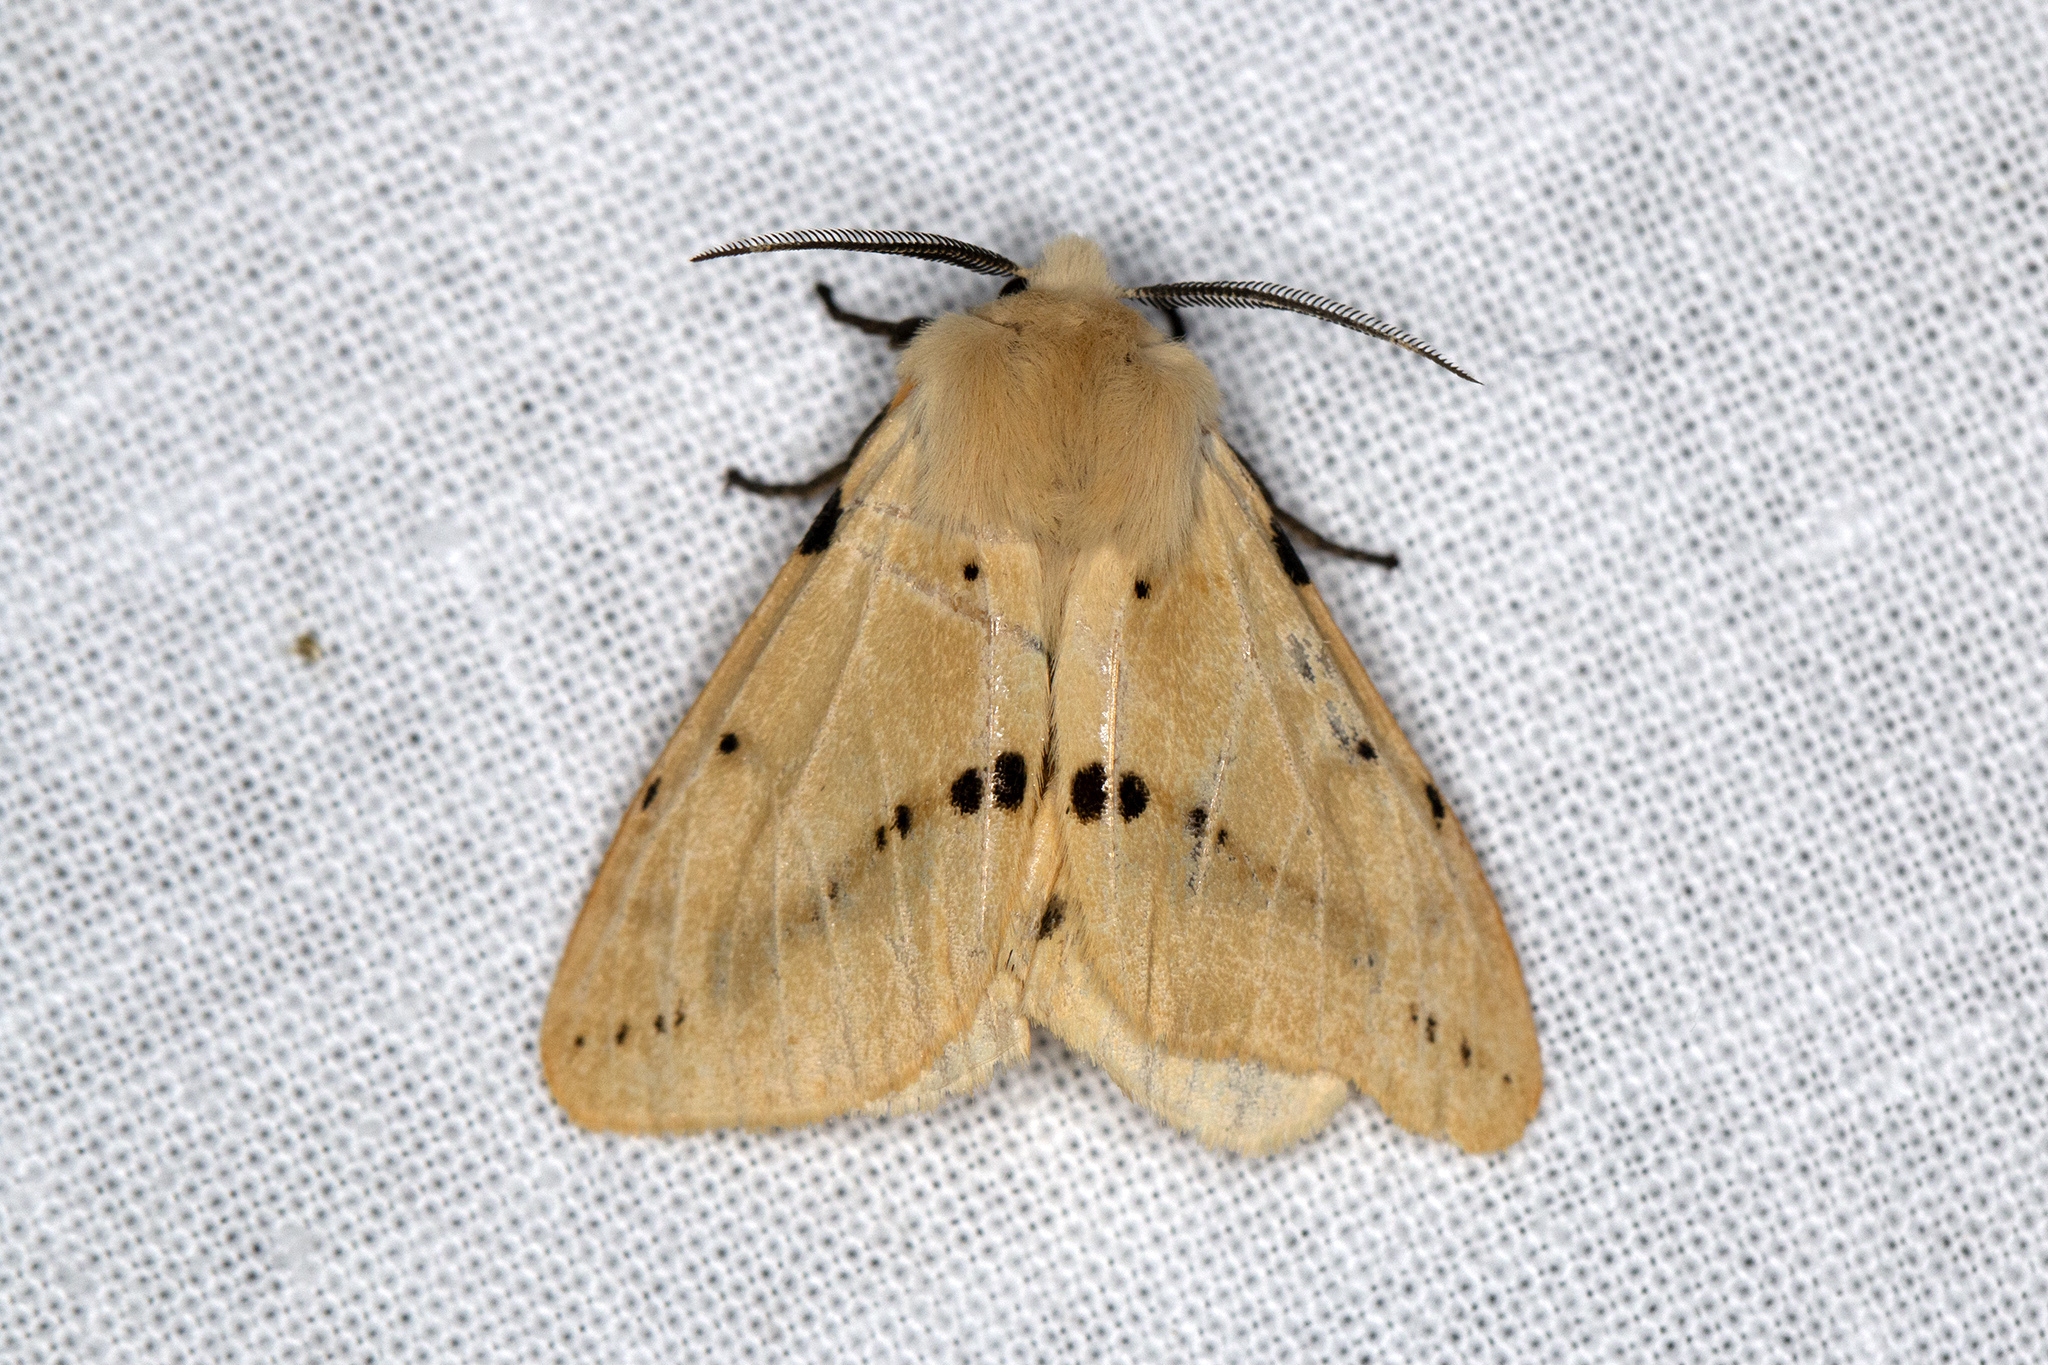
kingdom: Animalia
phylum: Arthropoda
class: Insecta
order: Lepidoptera
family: Erebidae
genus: Spilarctia
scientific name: Spilarctia lutea
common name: Buff ermine
